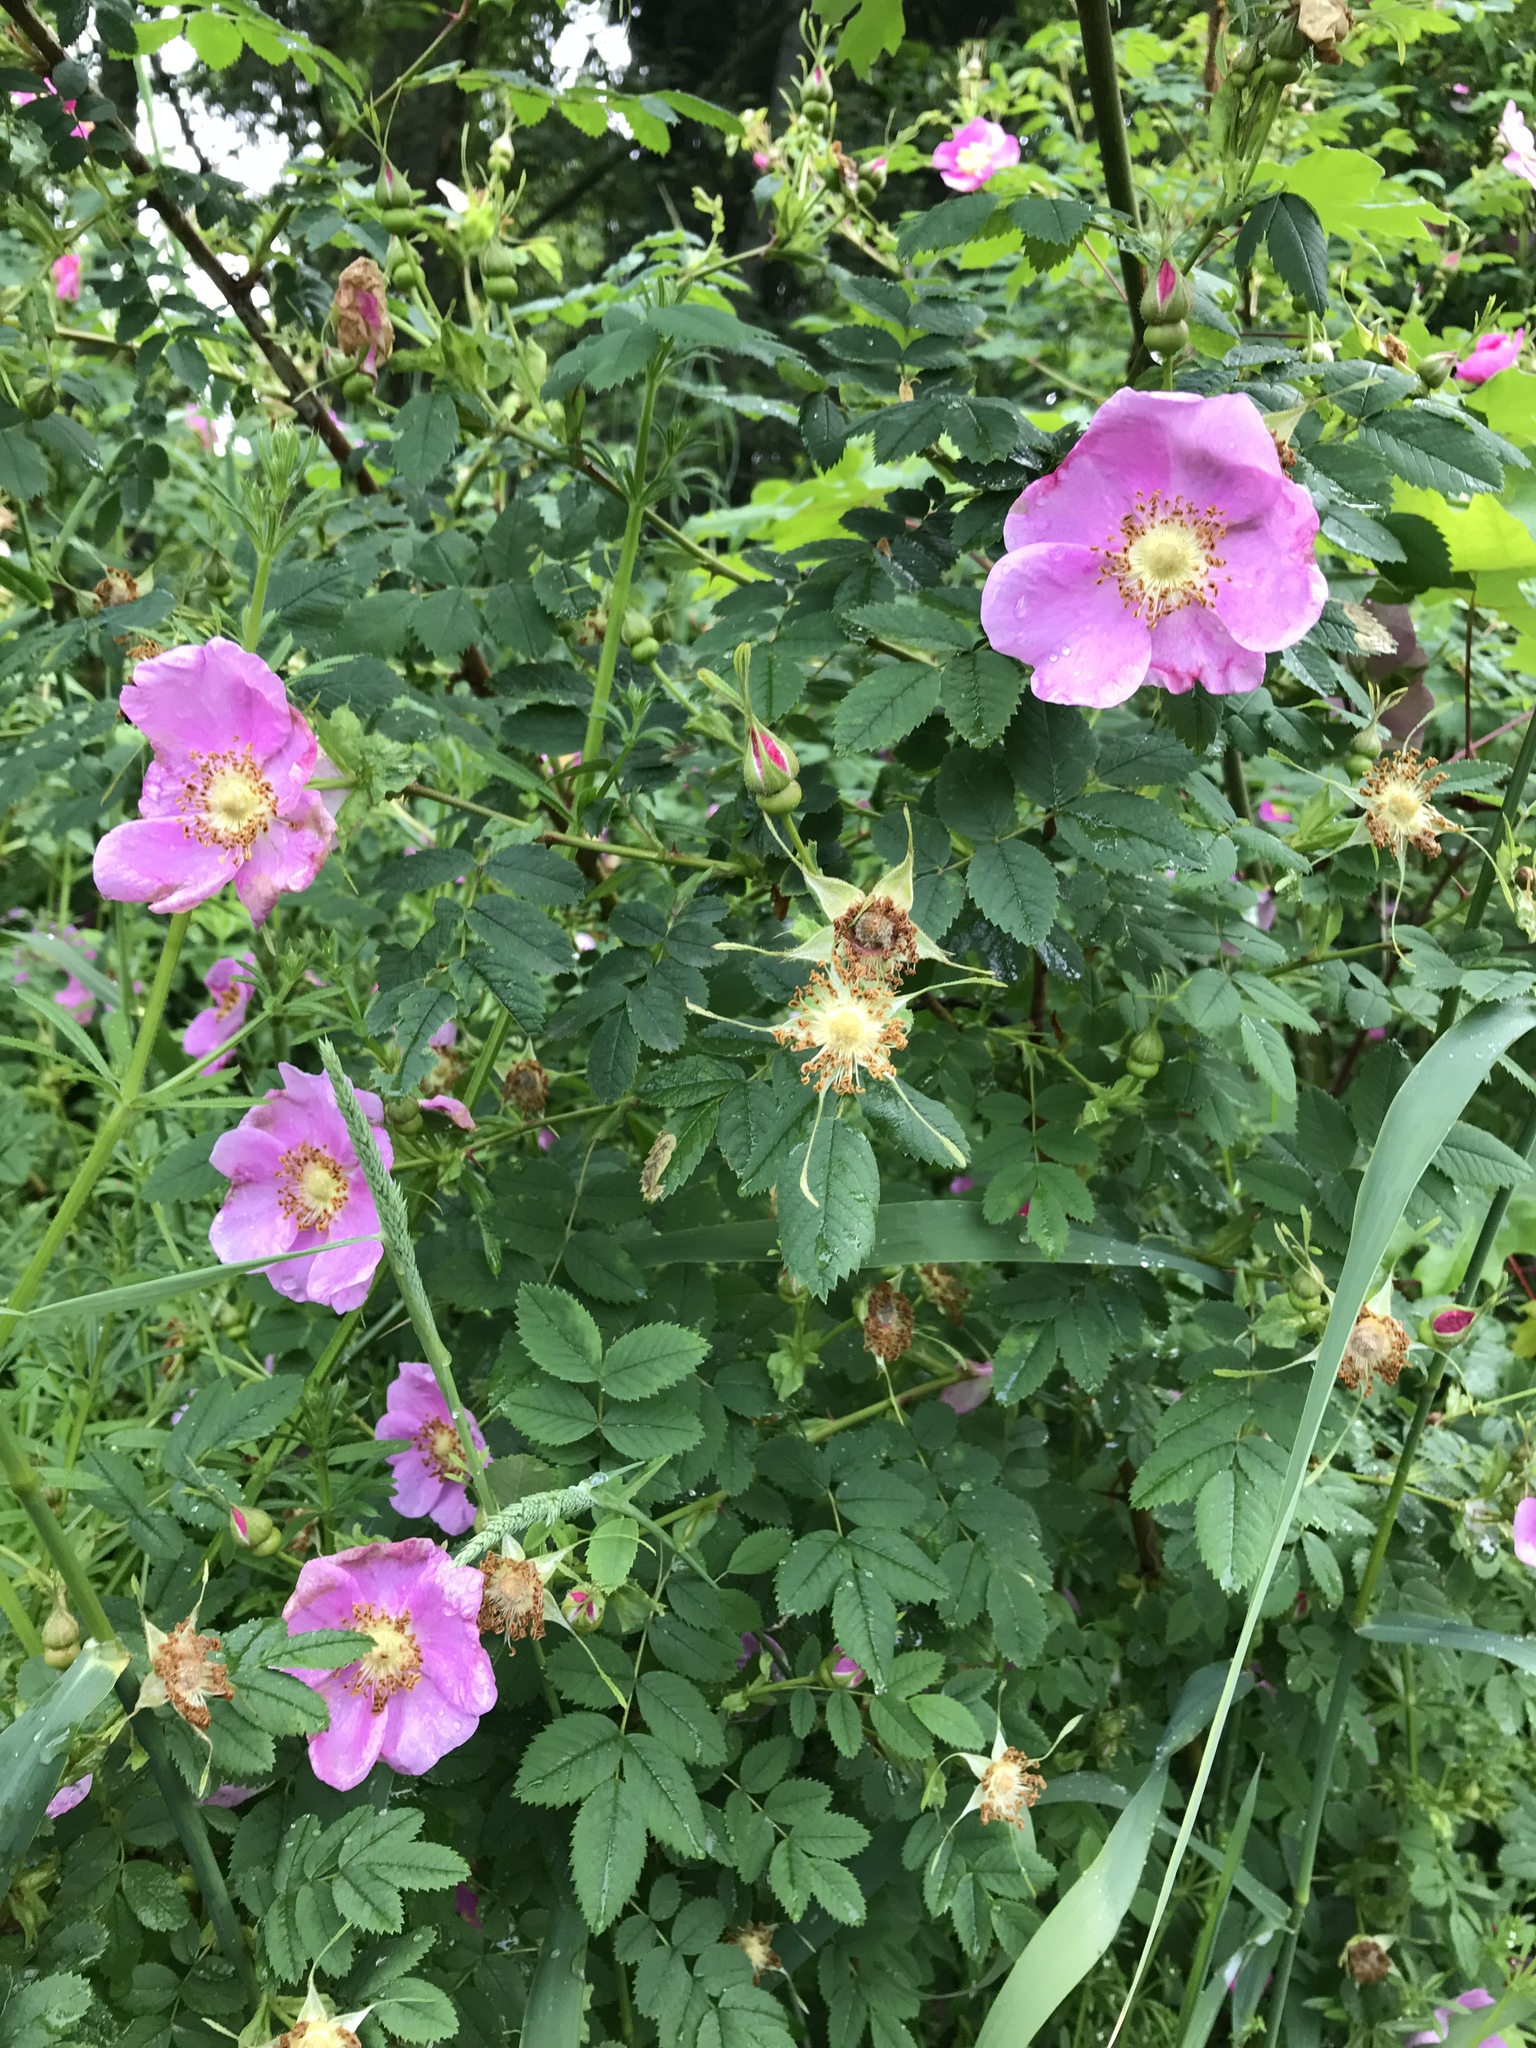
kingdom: Plantae
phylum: Tracheophyta
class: Magnoliopsida
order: Rosales
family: Rosaceae
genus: Rosa
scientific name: Rosa nutkana
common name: Nootka rose
